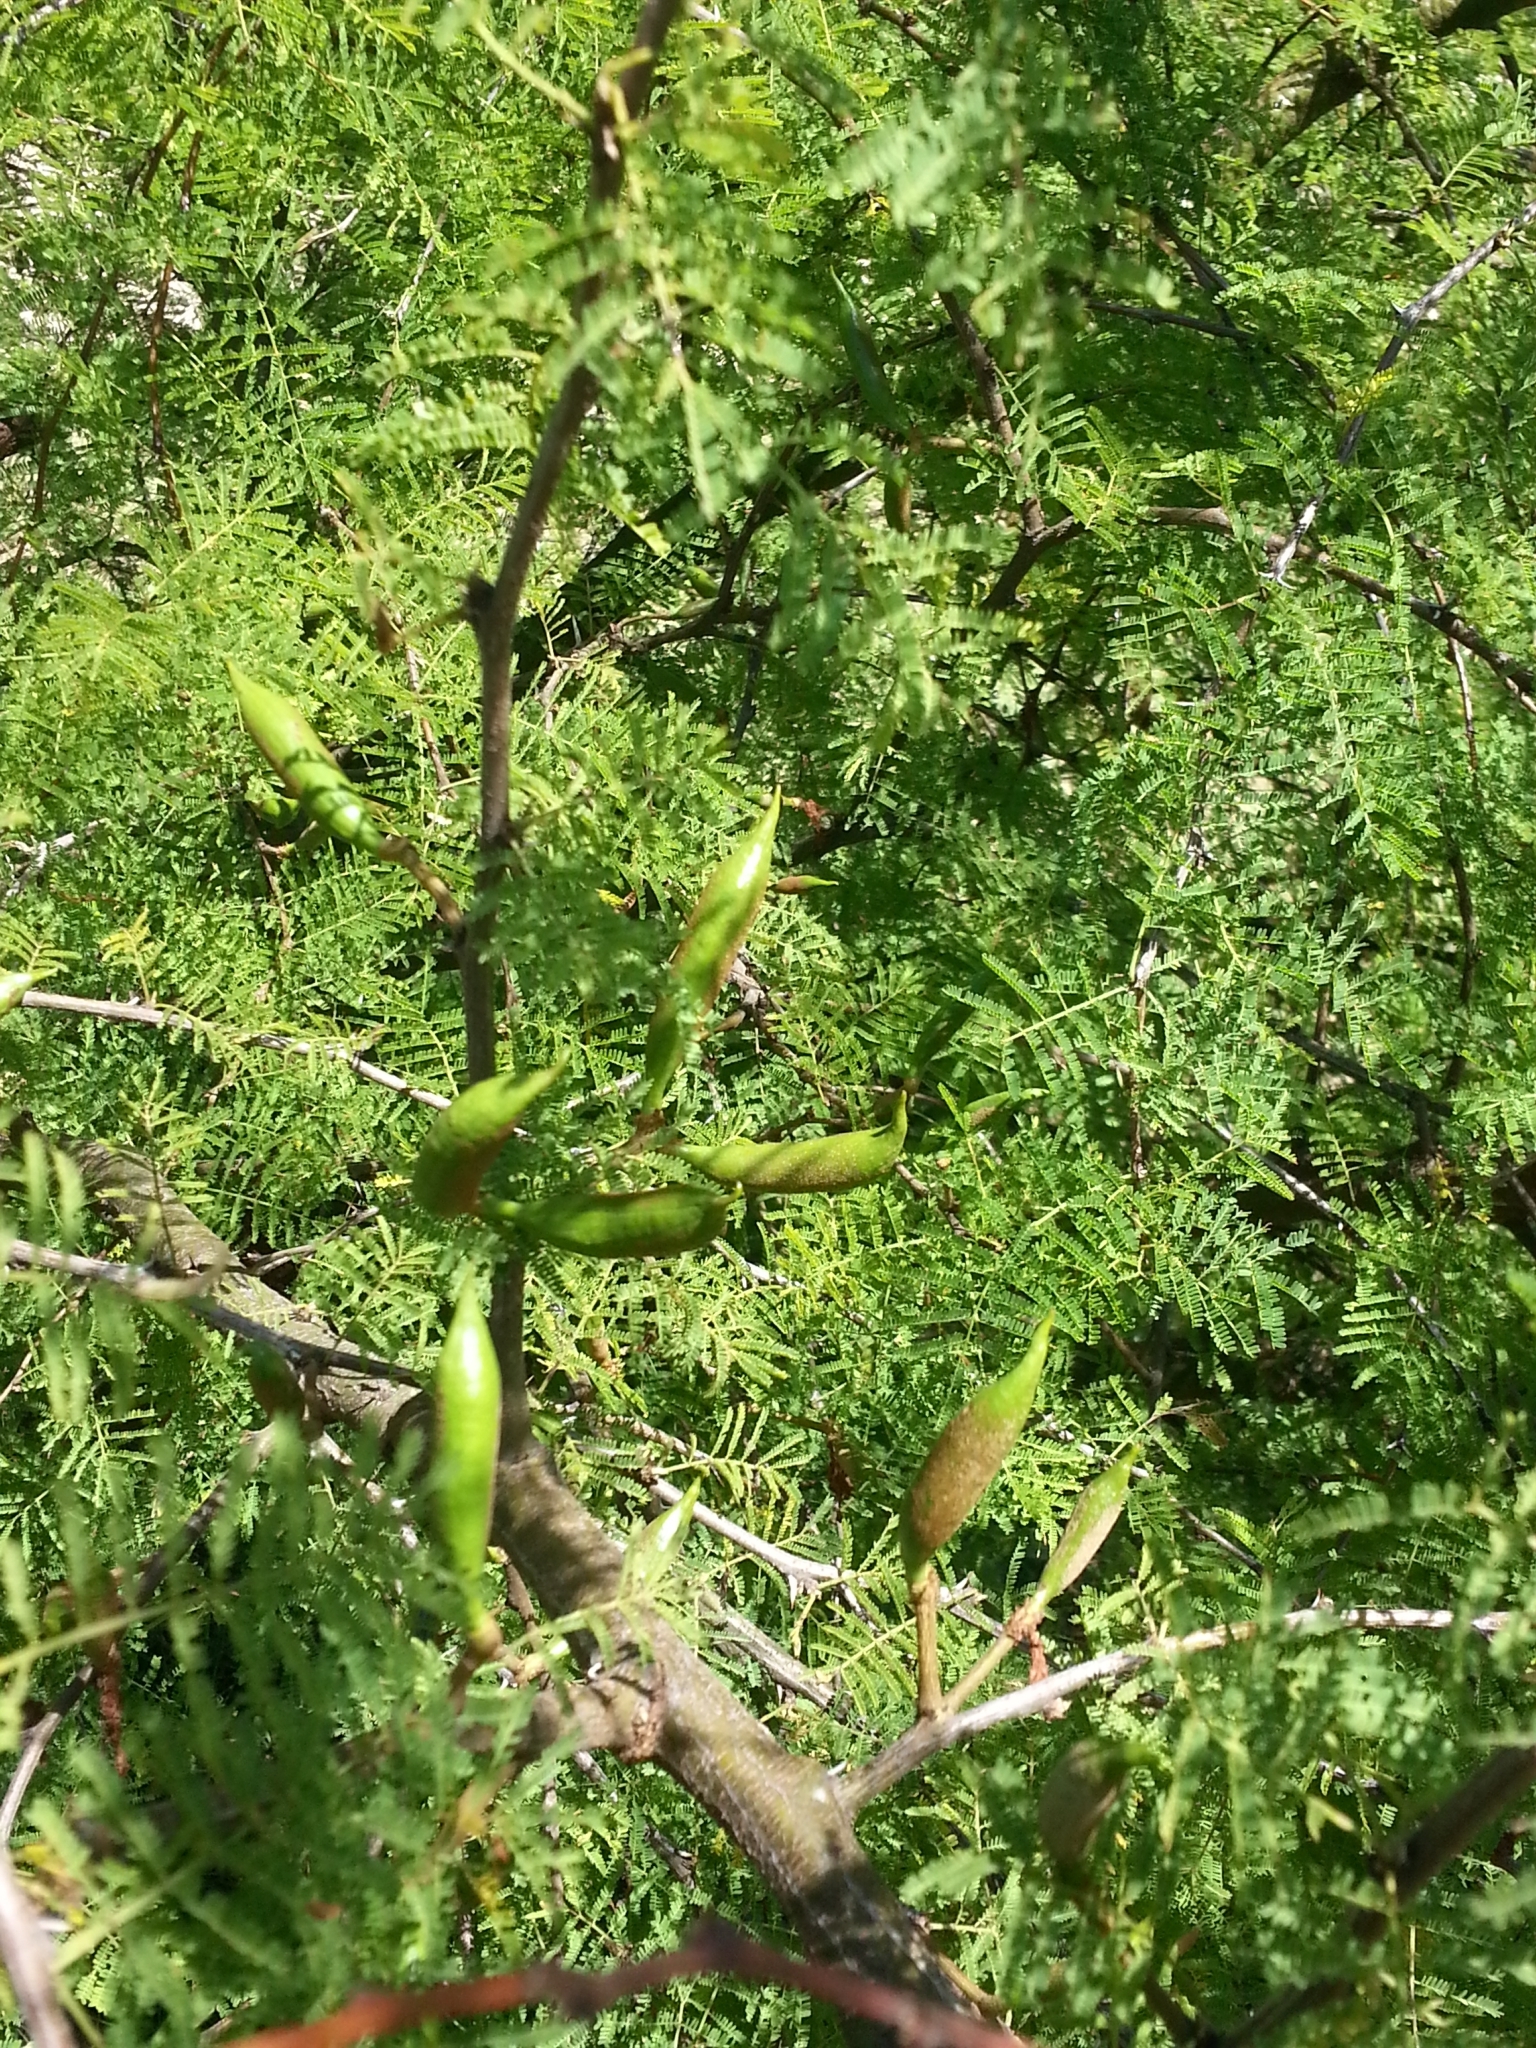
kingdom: Plantae
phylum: Tracheophyta
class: Magnoliopsida
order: Fabales
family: Fabaceae
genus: Vachellia
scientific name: Vachellia caven
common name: Roman cassie
